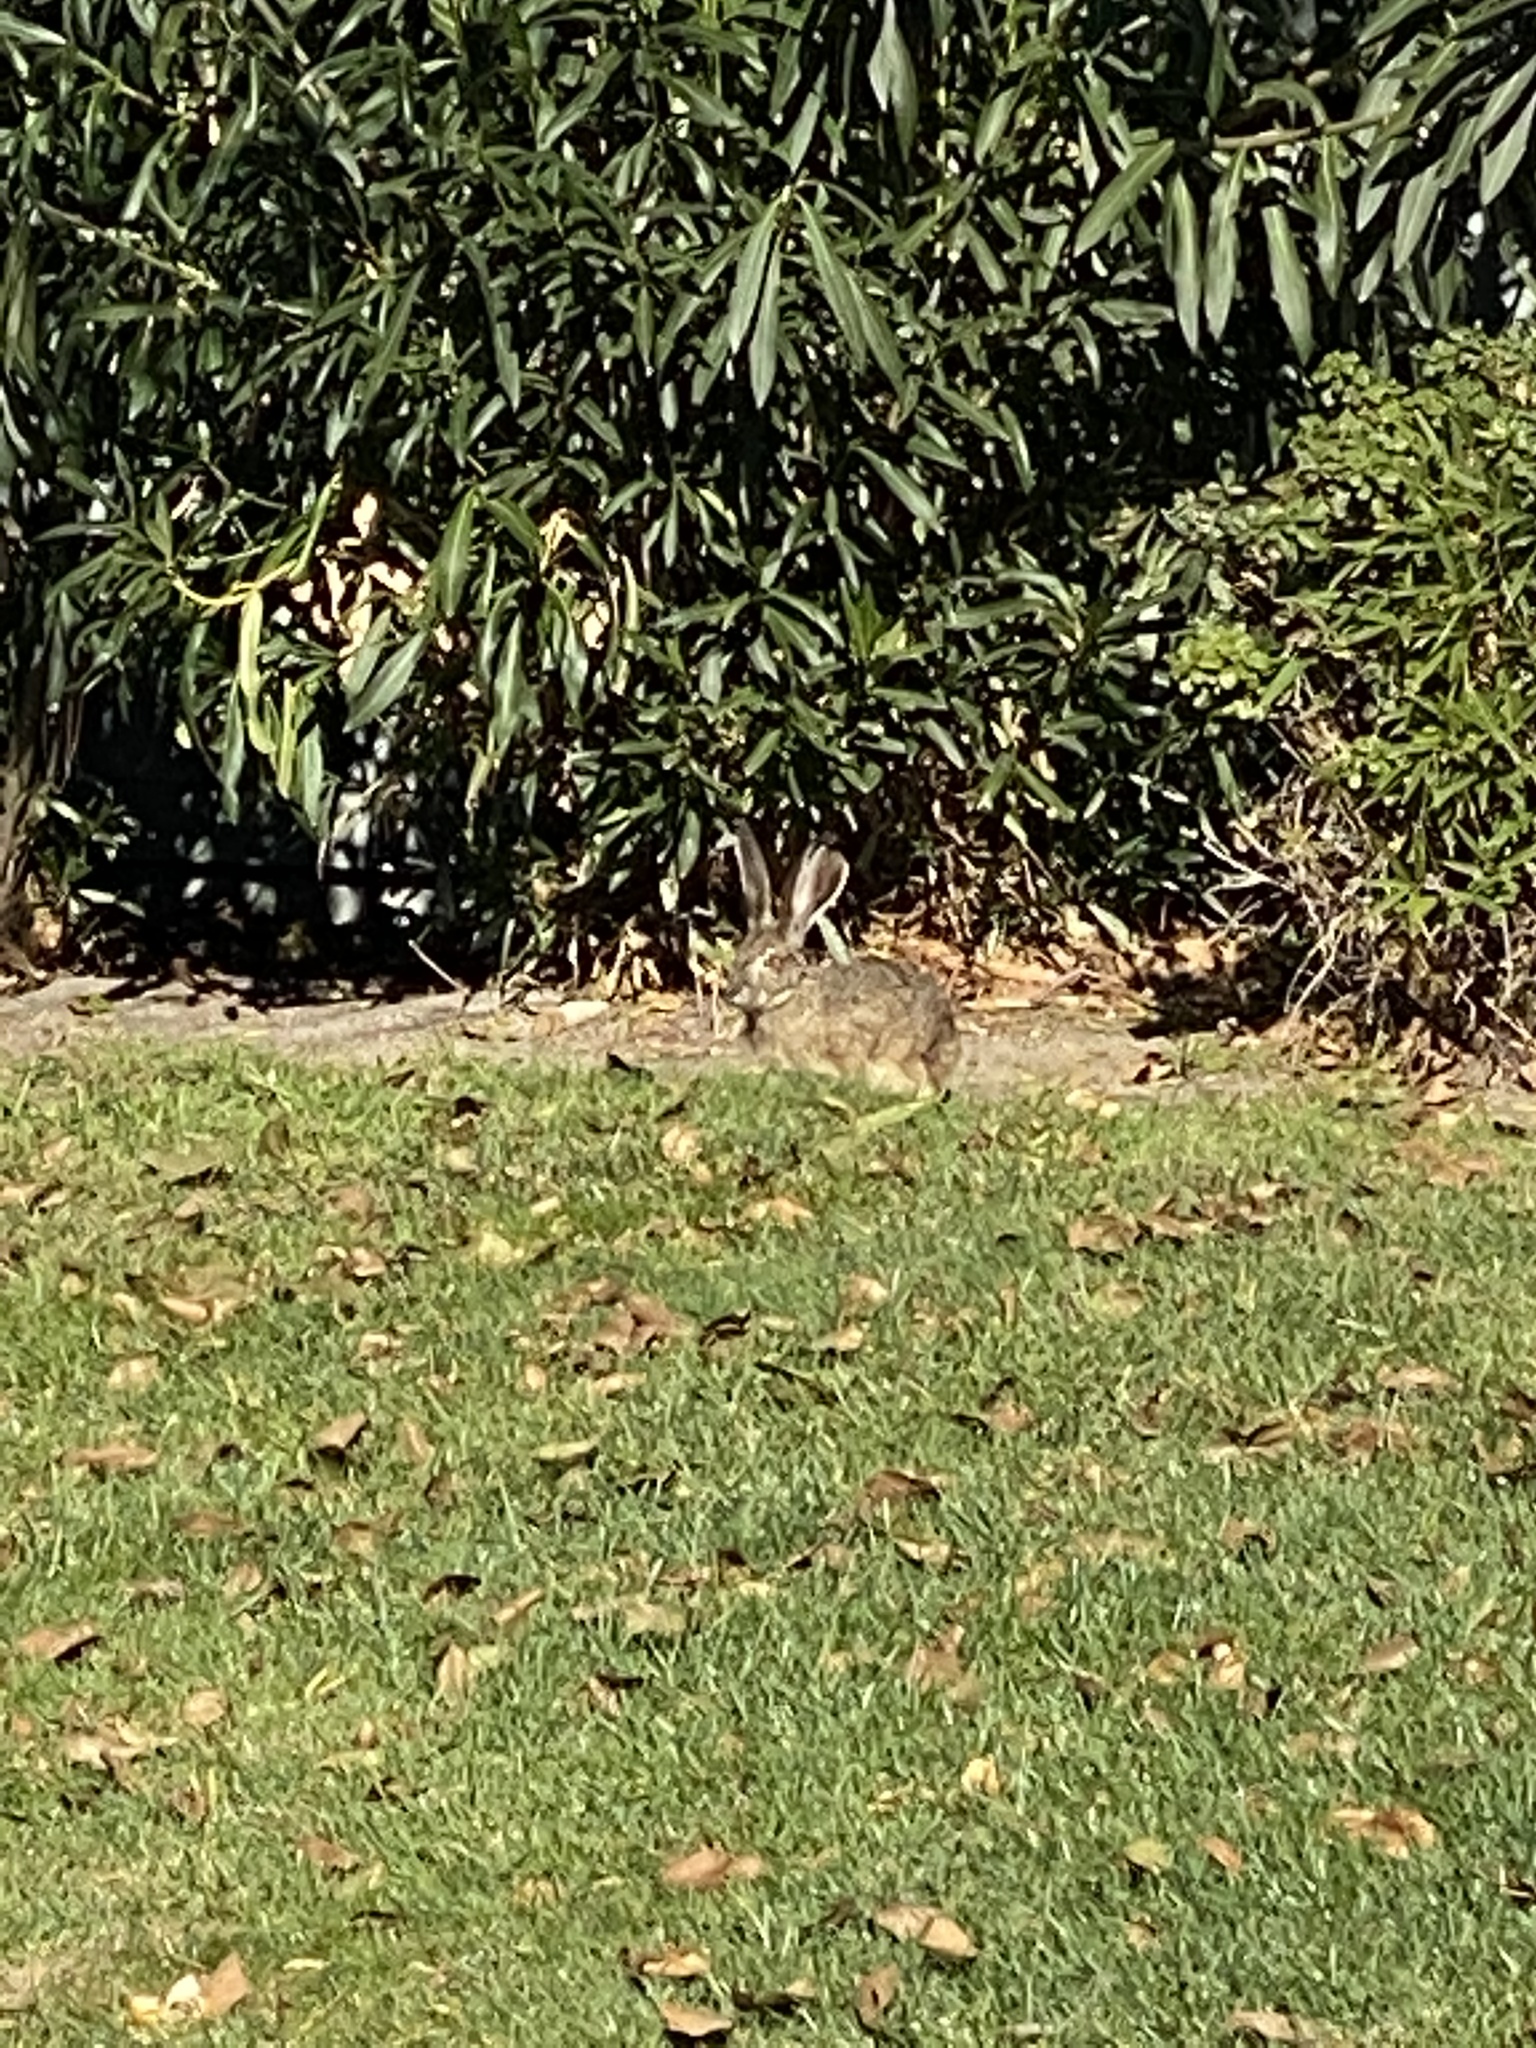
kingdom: Animalia
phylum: Chordata
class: Mammalia
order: Lagomorpha
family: Leporidae
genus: Lepus
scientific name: Lepus californicus
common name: Black-tailed jackrabbit
